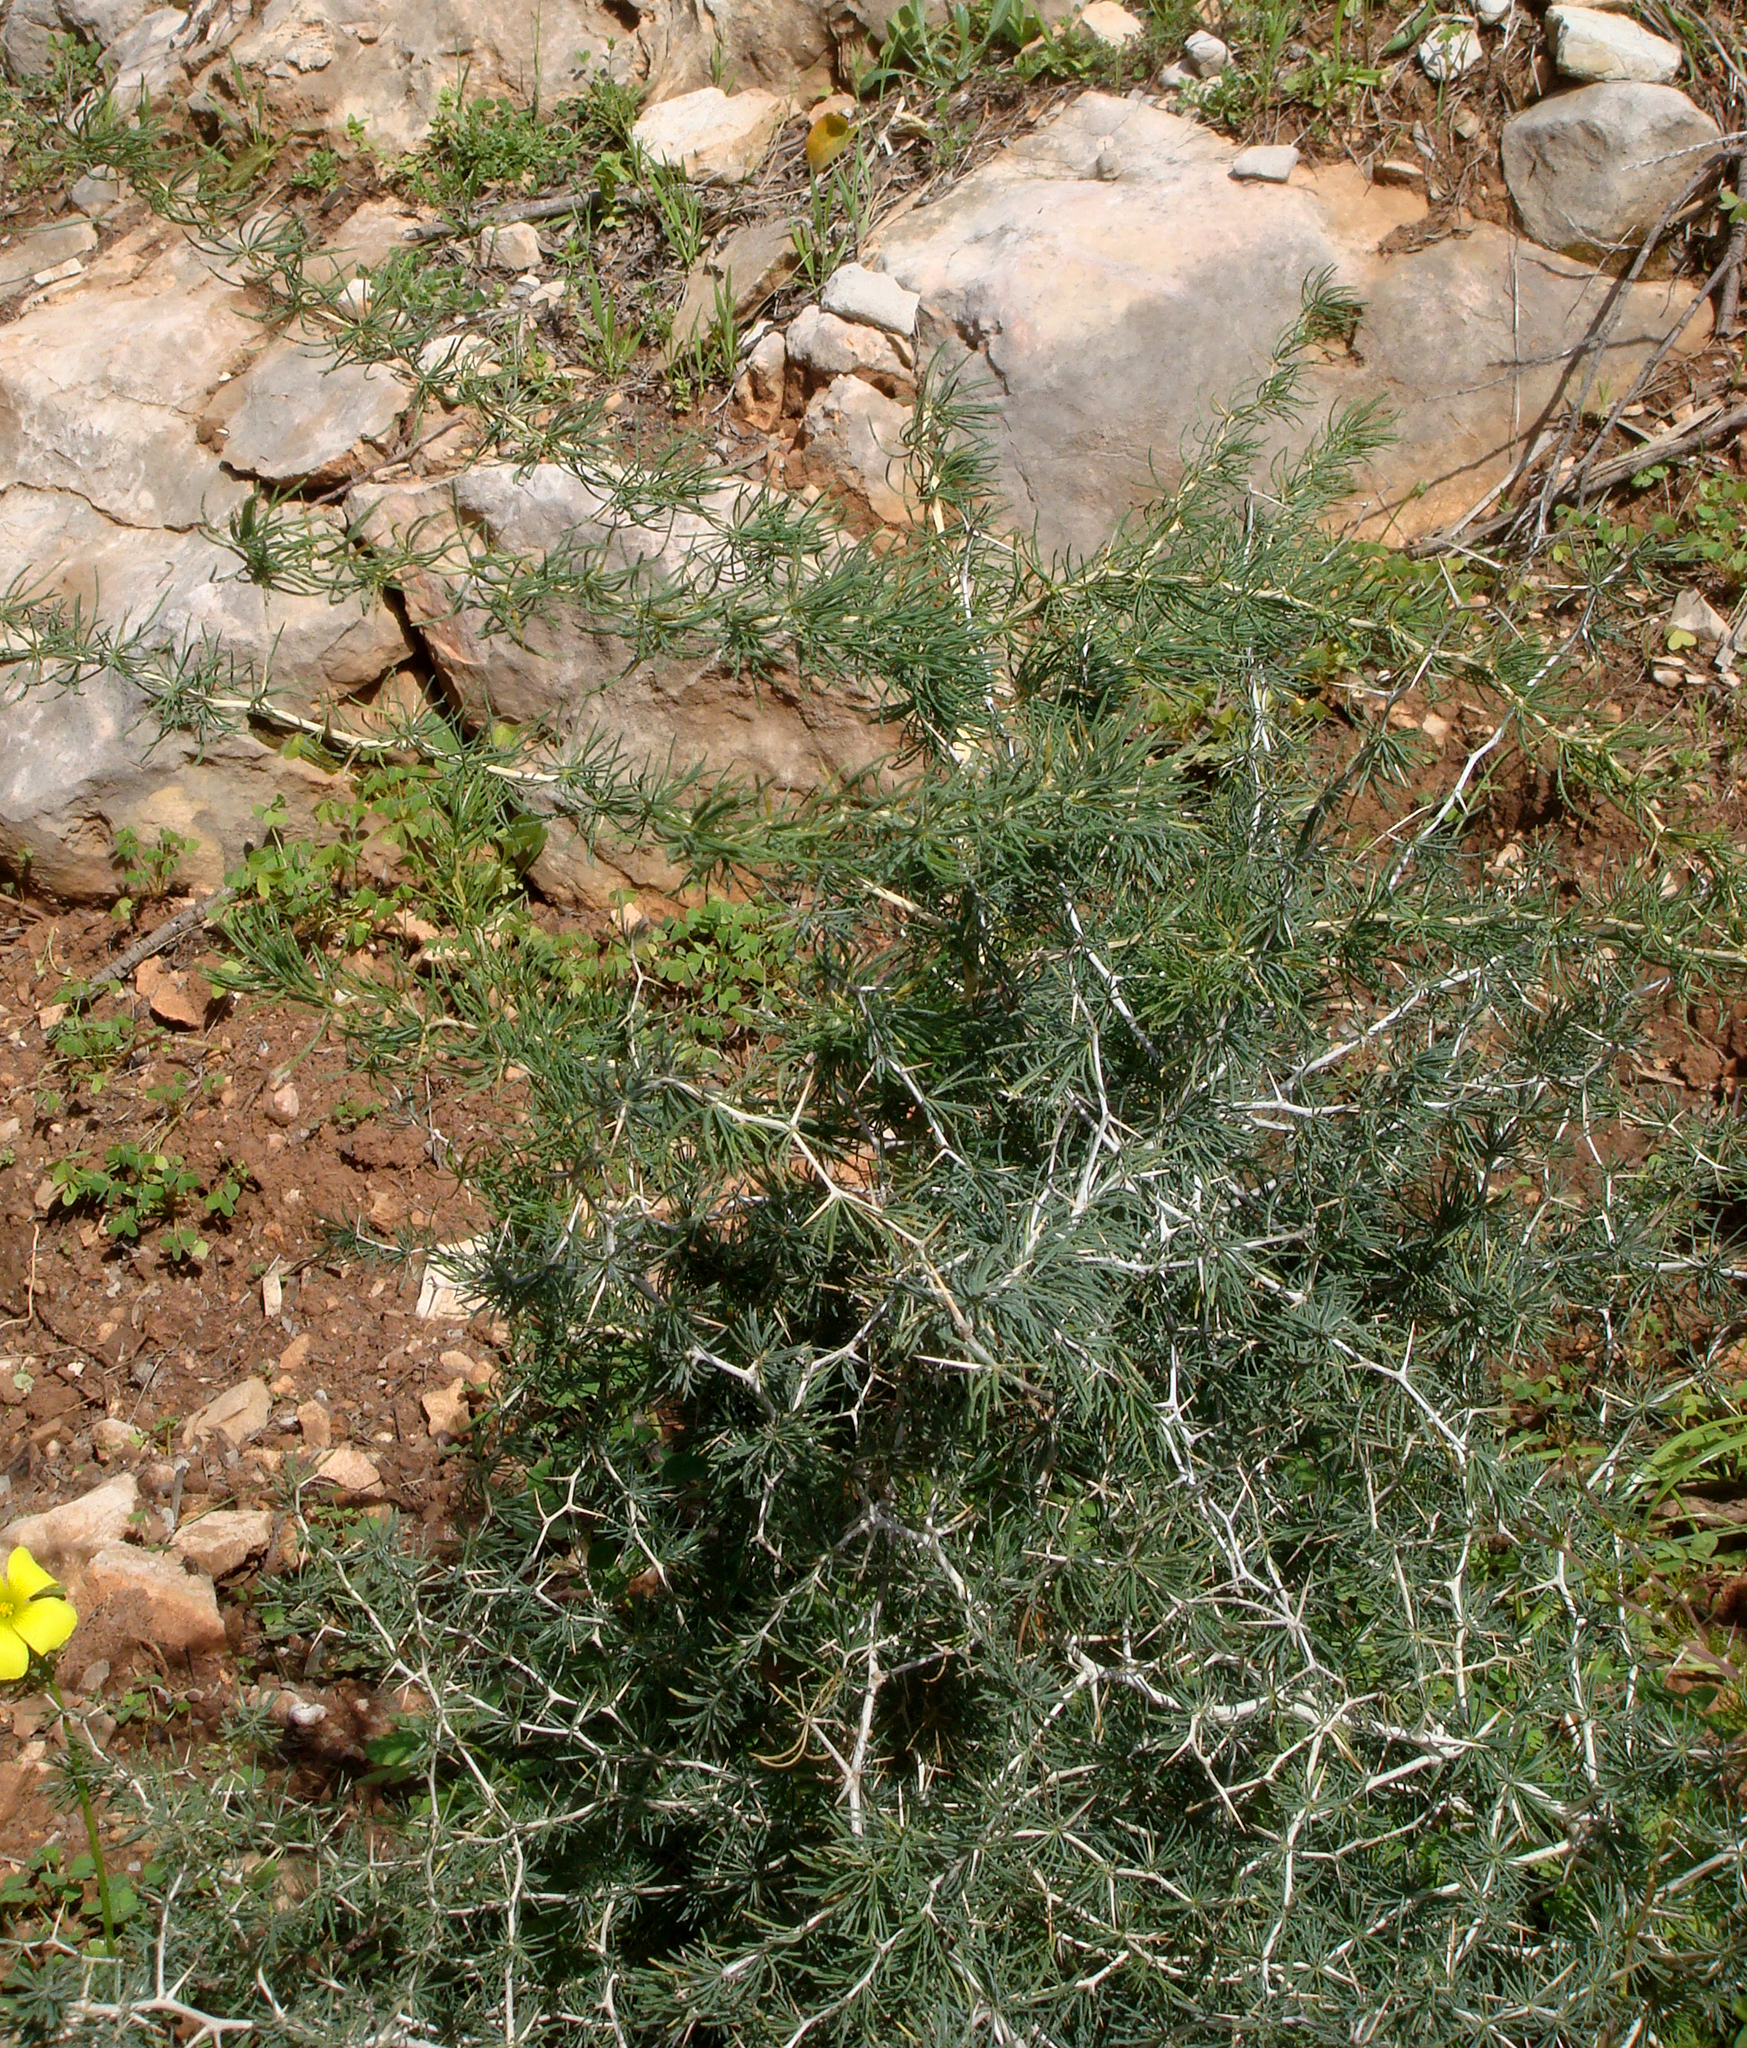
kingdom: Plantae
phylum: Tracheophyta
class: Liliopsida
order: Asparagales
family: Asparagaceae
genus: Asparagus
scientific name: Asparagus albus
